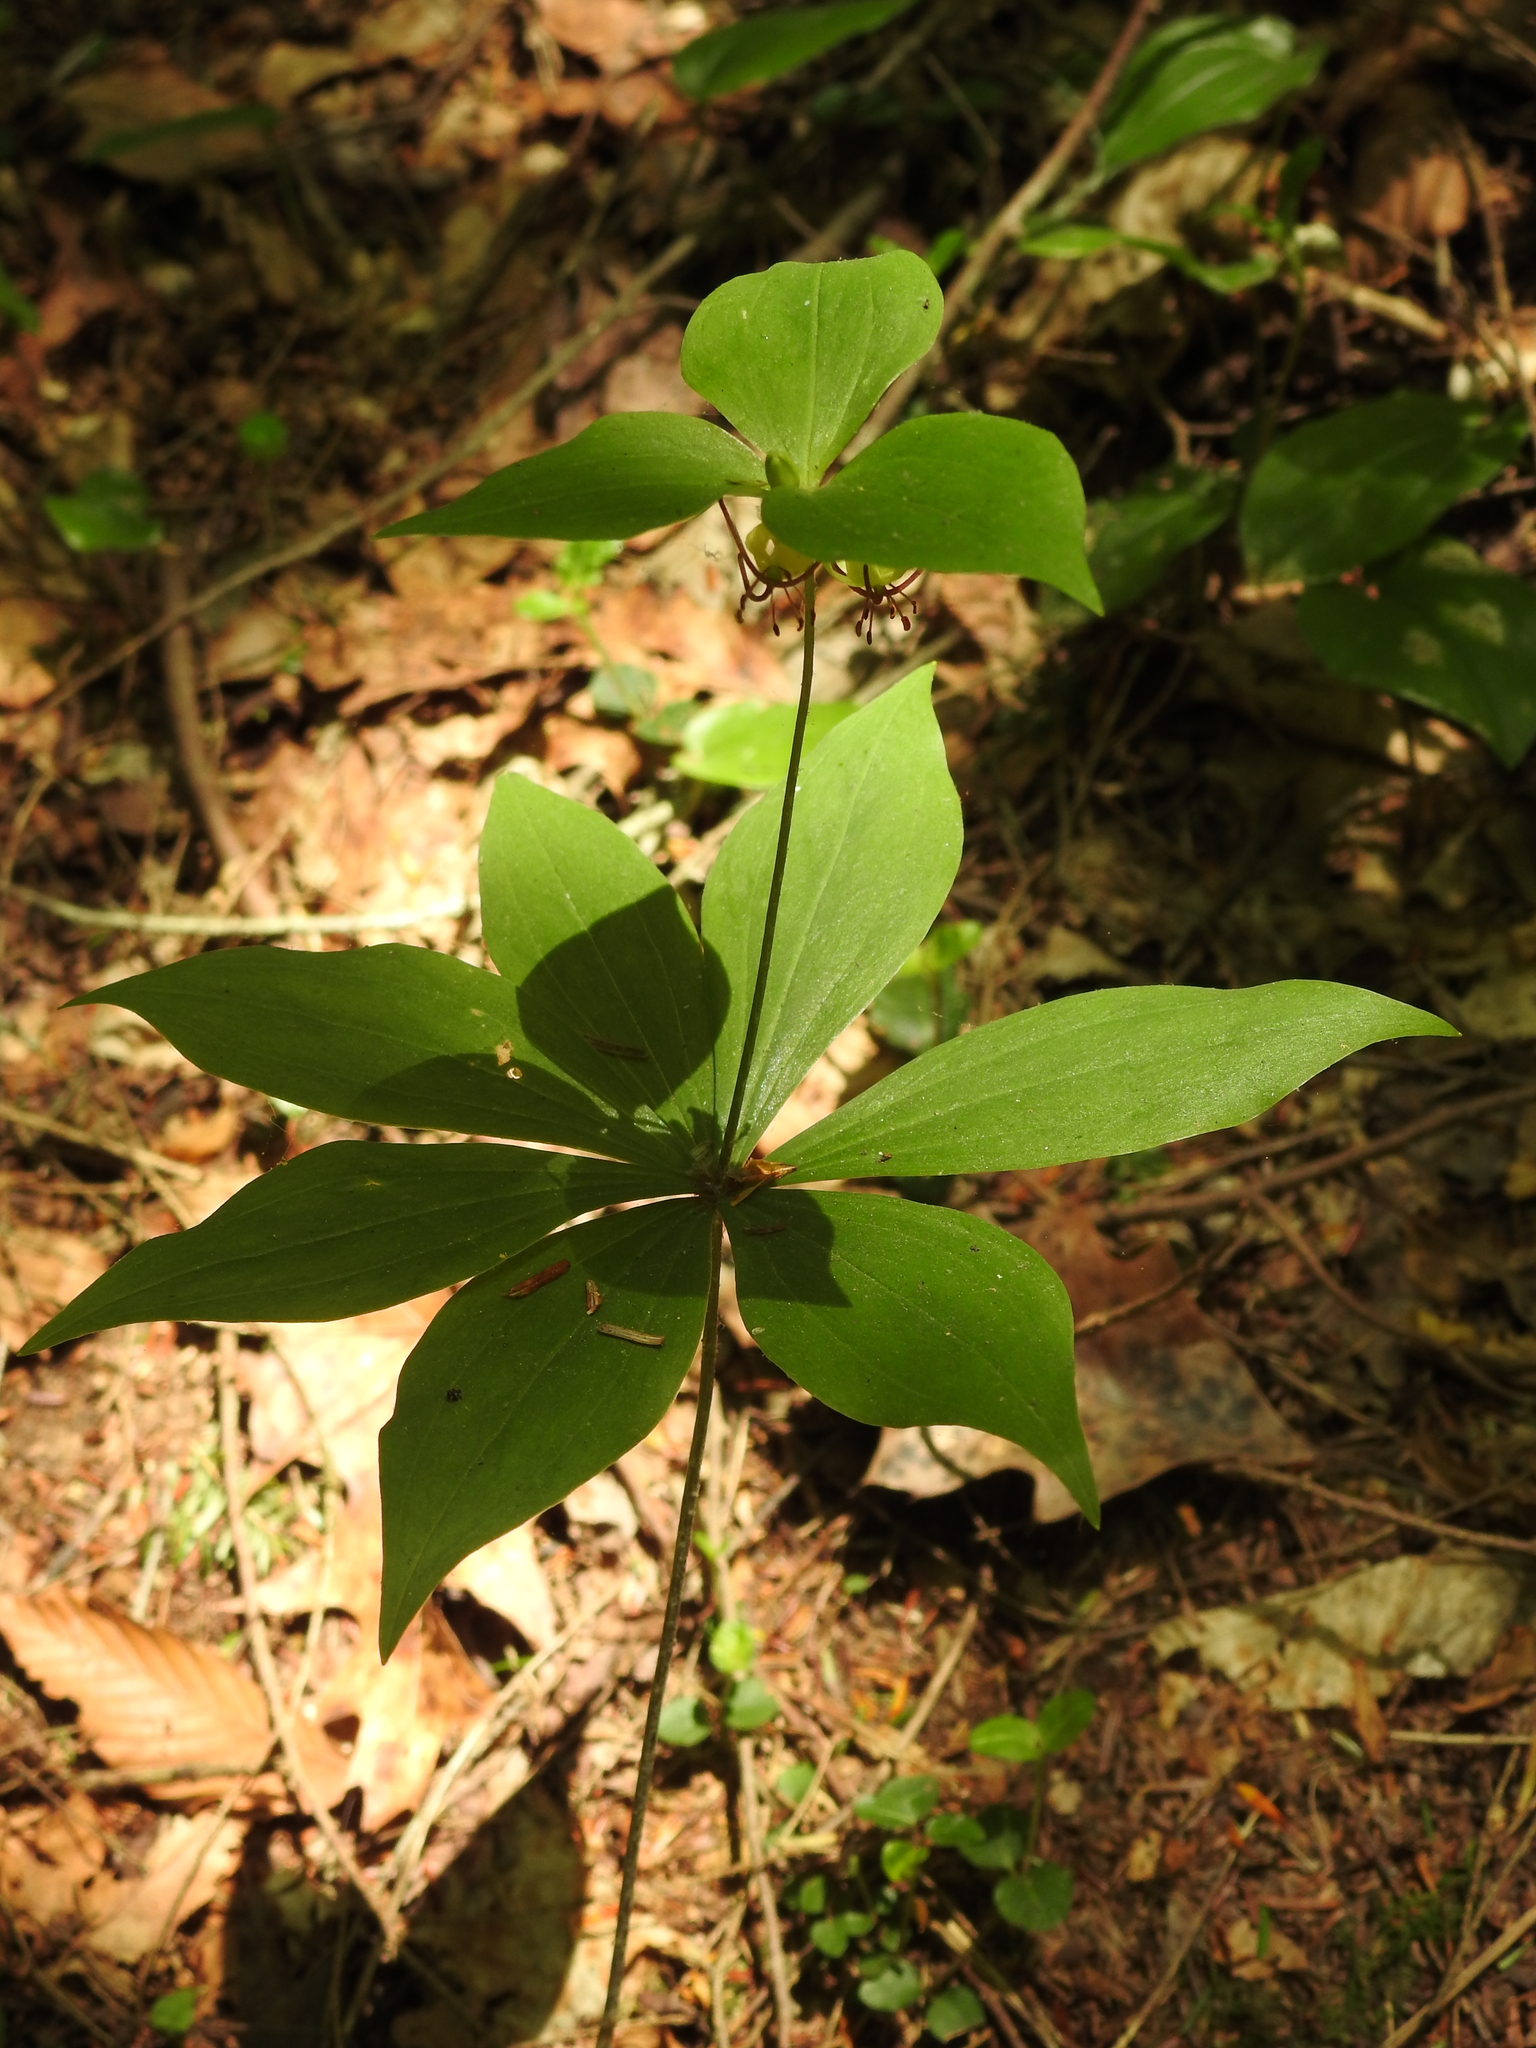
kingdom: Plantae
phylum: Tracheophyta
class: Liliopsida
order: Liliales
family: Liliaceae
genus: Medeola
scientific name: Medeola virginiana
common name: Indian cucumber-root
